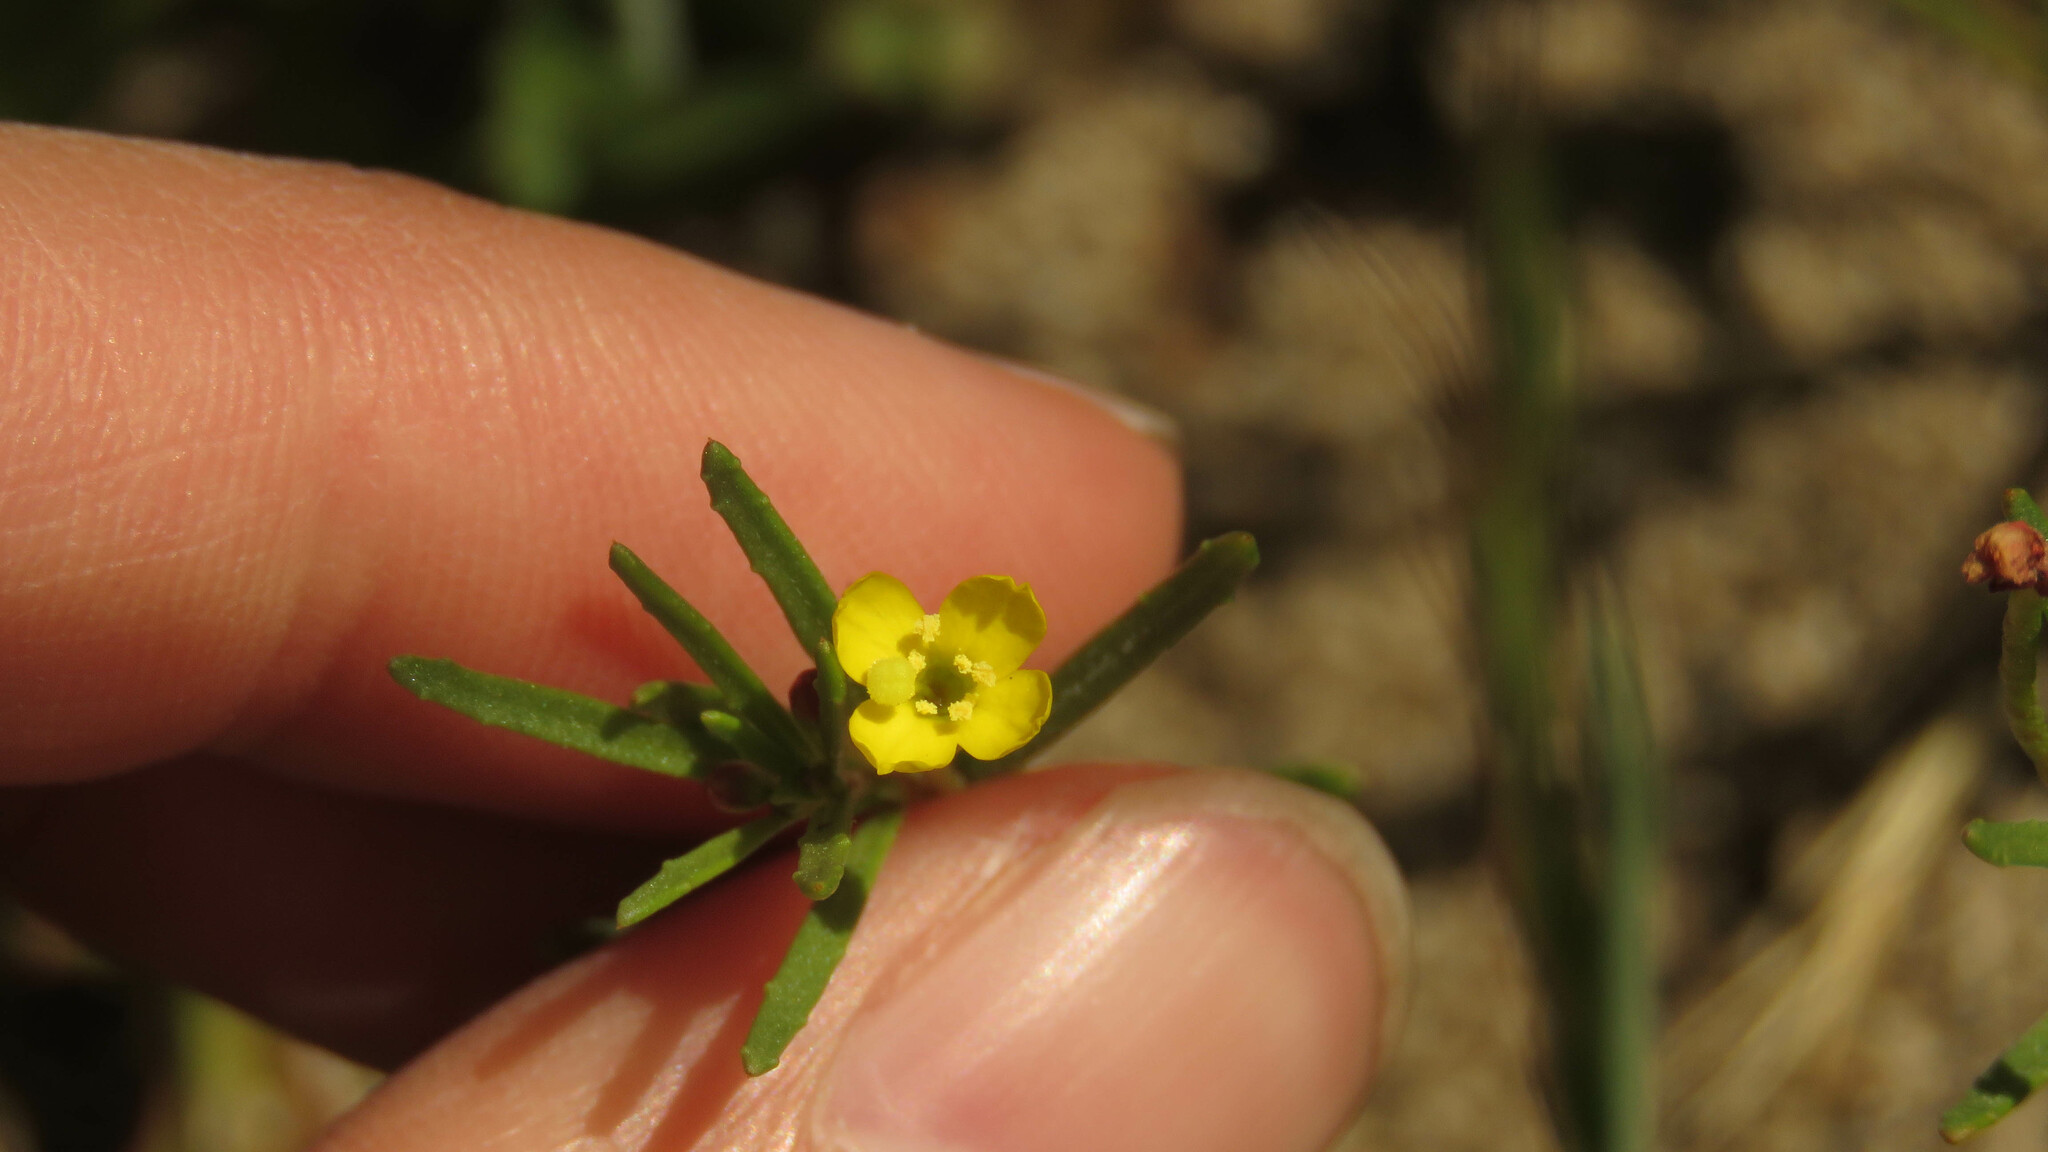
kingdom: Plantae
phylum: Tracheophyta
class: Magnoliopsida
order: Myrtales
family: Onagraceae
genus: Camissonia
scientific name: Camissonia dentata
